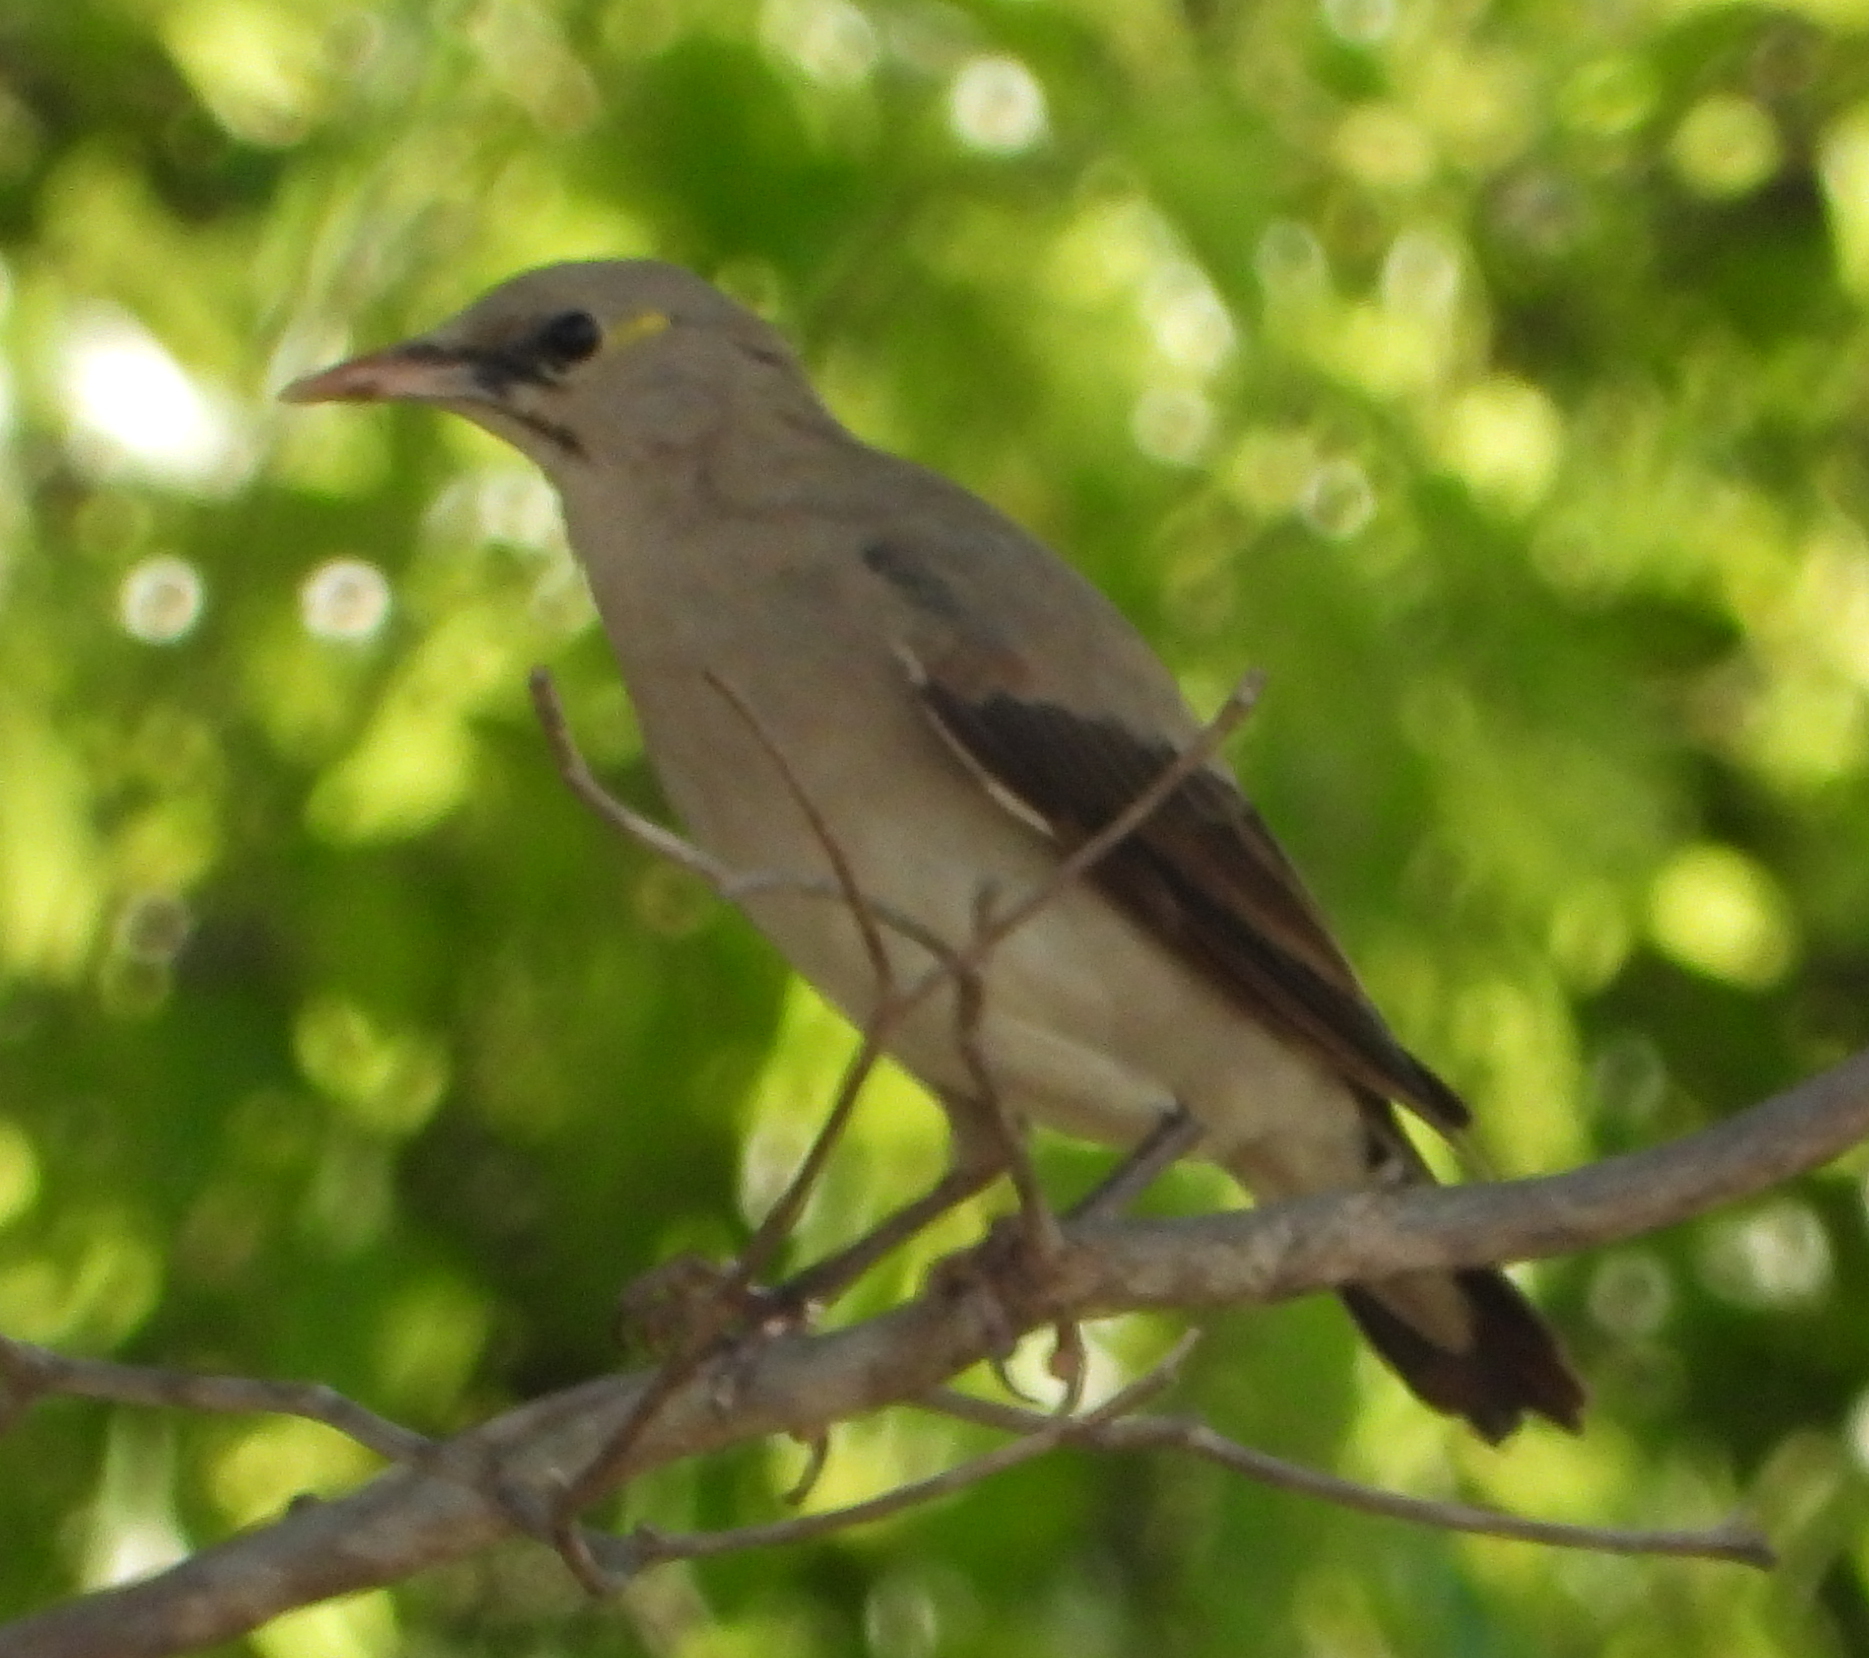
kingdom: Animalia
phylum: Chordata
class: Aves
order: Passeriformes
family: Sturnidae
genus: Creatophora
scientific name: Creatophora cinerea
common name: Wattled starling
